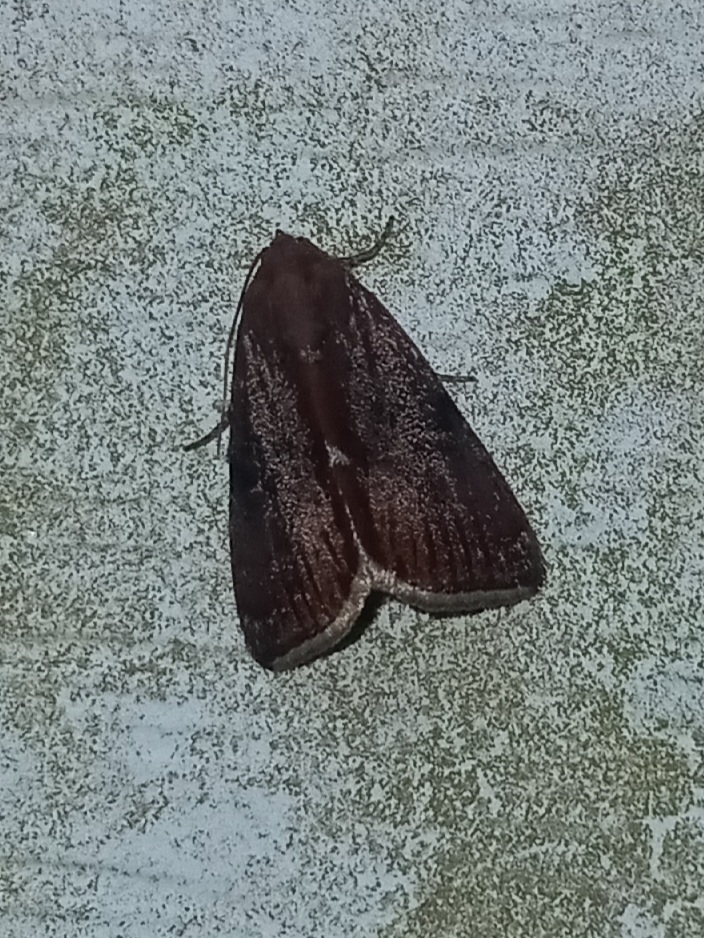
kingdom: Animalia
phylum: Arthropoda
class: Insecta
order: Lepidoptera
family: Noctuidae
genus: Galgula
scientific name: Galgula partita
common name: Wedgeling
